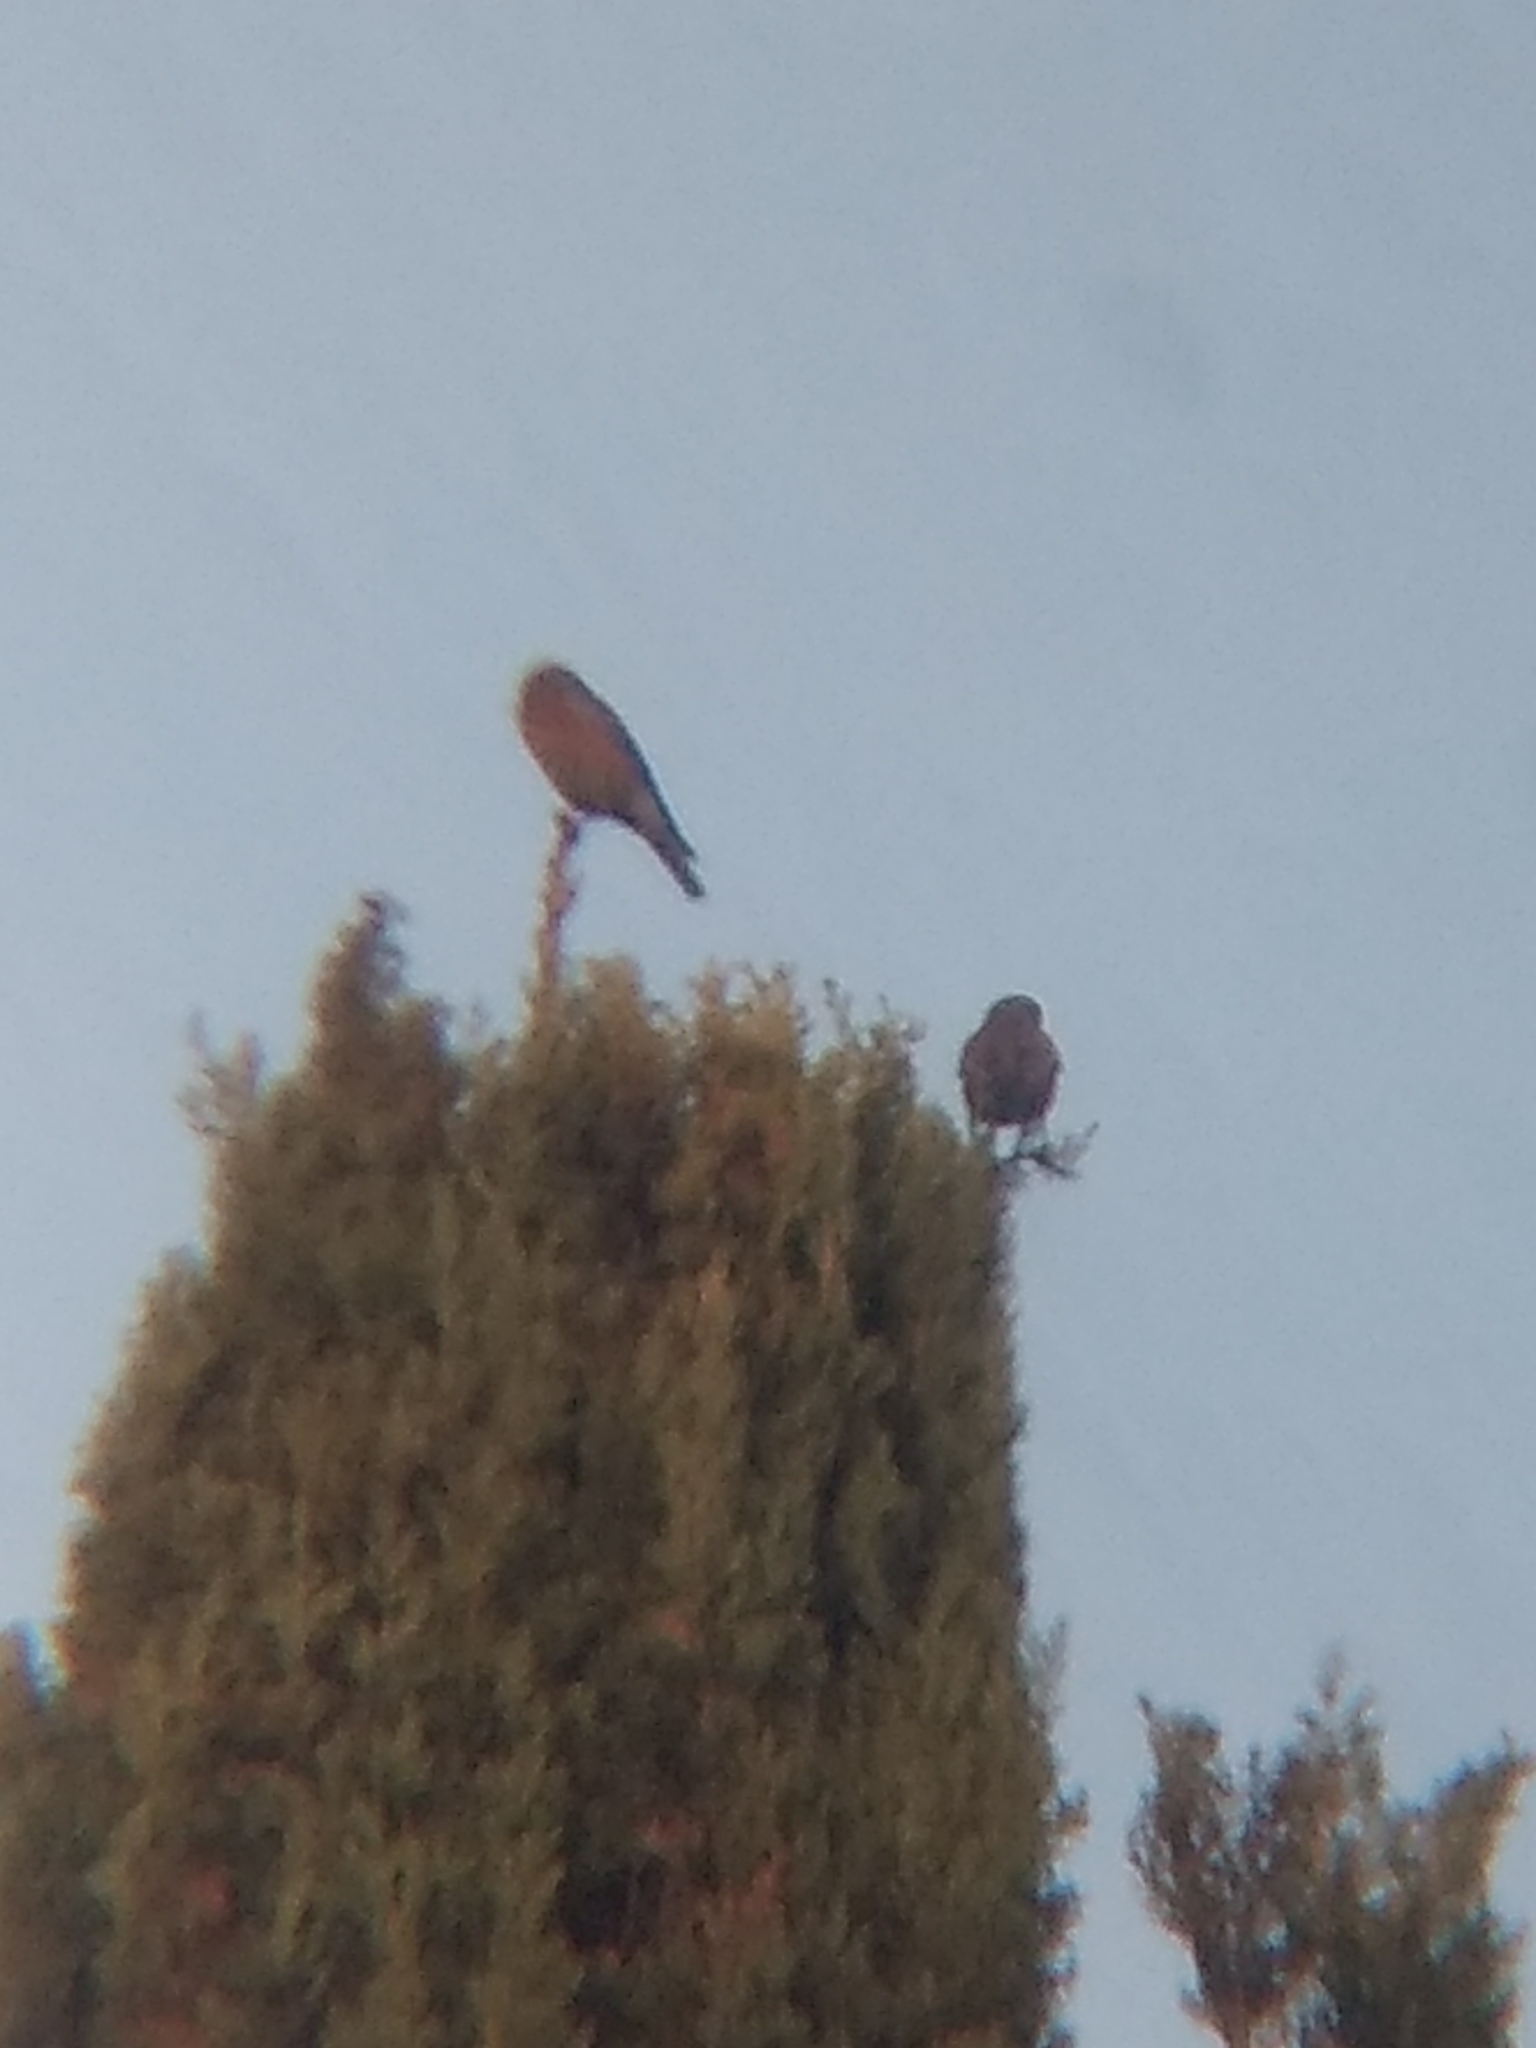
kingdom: Animalia
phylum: Chordata
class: Aves
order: Passeriformes
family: Turdidae
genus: Sialia
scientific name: Sialia mexicana
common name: Western bluebird
